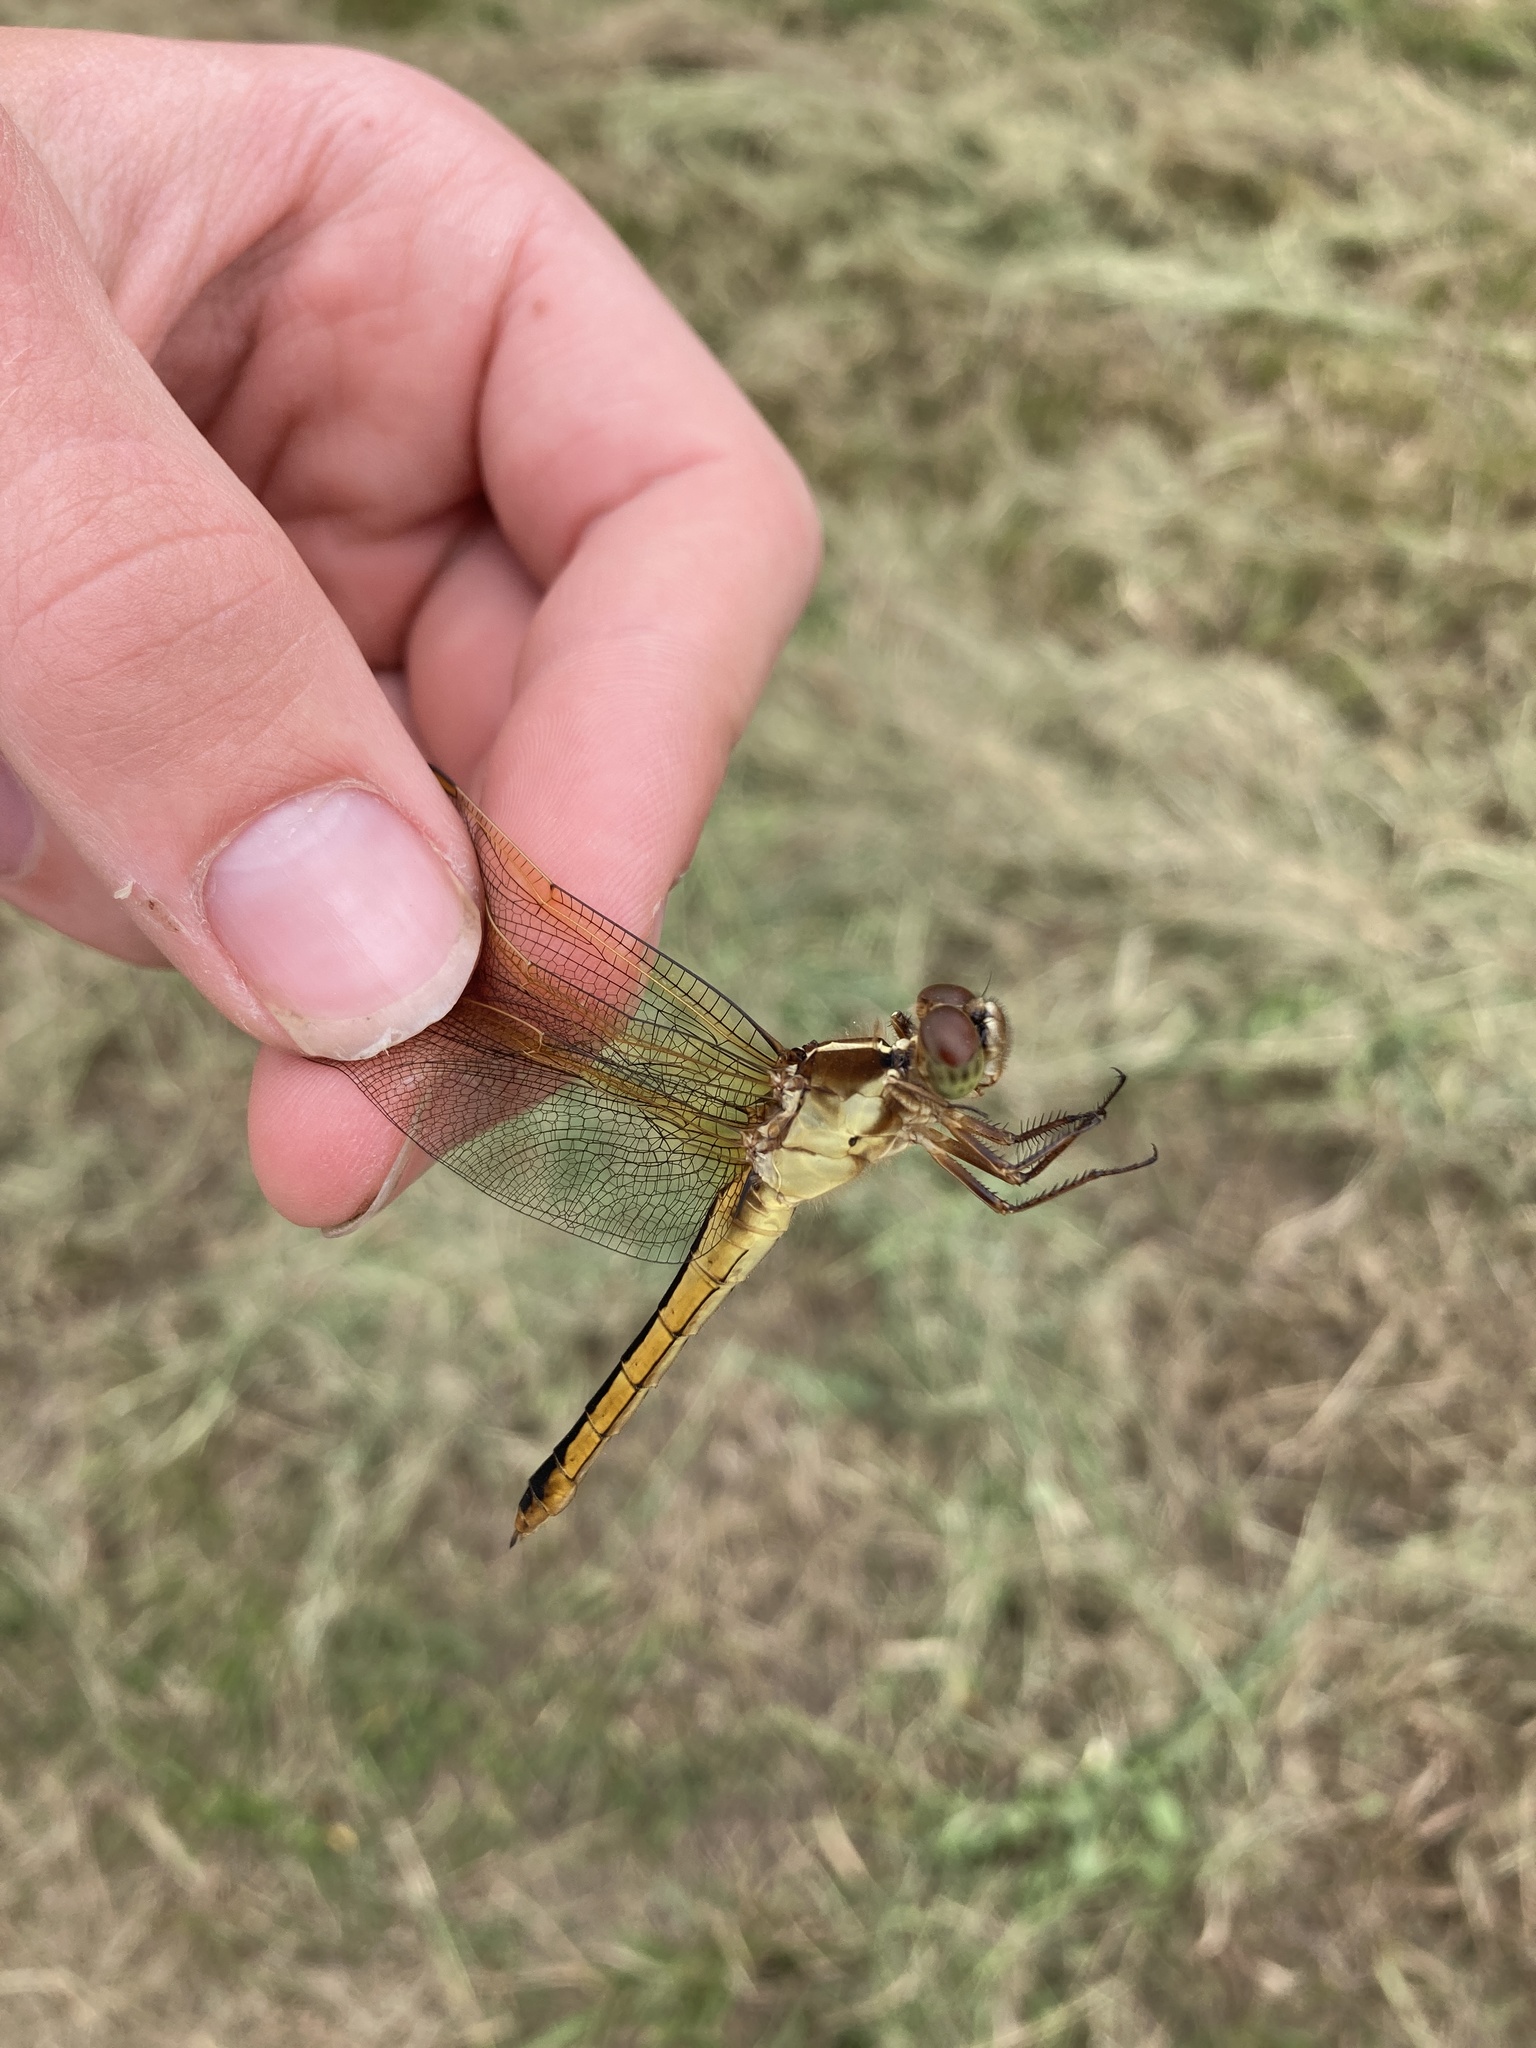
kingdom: Animalia
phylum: Arthropoda
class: Insecta
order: Odonata
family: Libellulidae
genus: Libellula
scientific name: Libellula needhami
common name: Needham's skimmer
